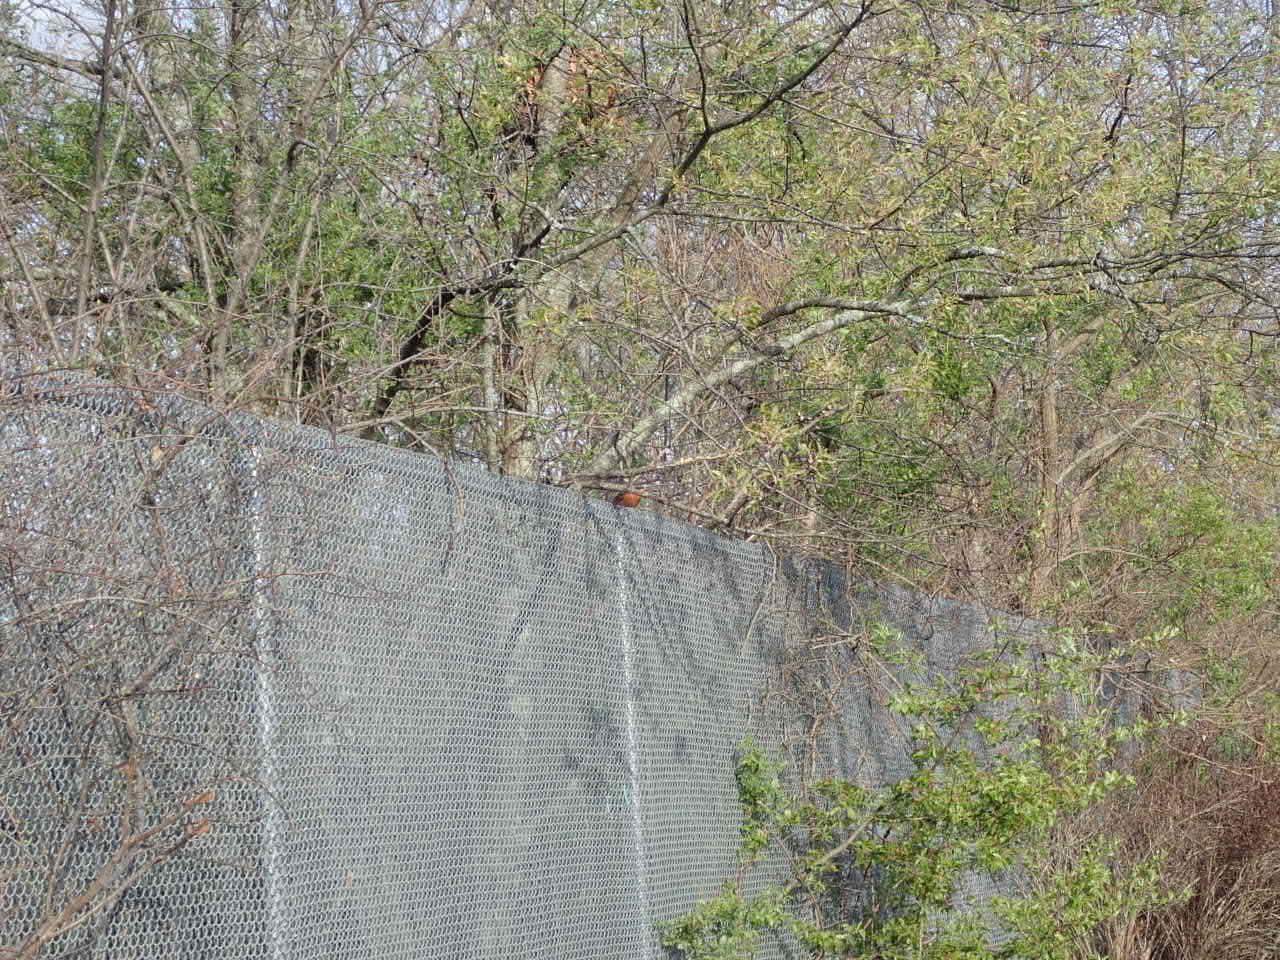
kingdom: Animalia
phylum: Chordata
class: Aves
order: Passeriformes
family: Turdidae
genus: Turdus
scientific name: Turdus migratorius
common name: American robin
